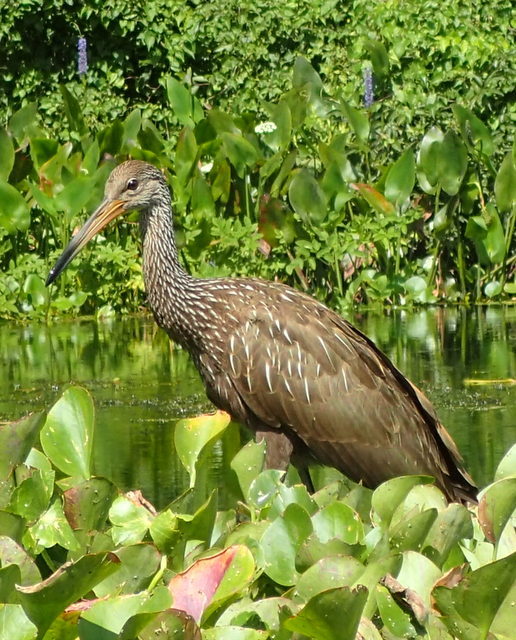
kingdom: Animalia
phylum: Chordata
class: Aves
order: Gruiformes
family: Aramidae
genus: Aramus
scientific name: Aramus guarauna
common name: Limpkin
